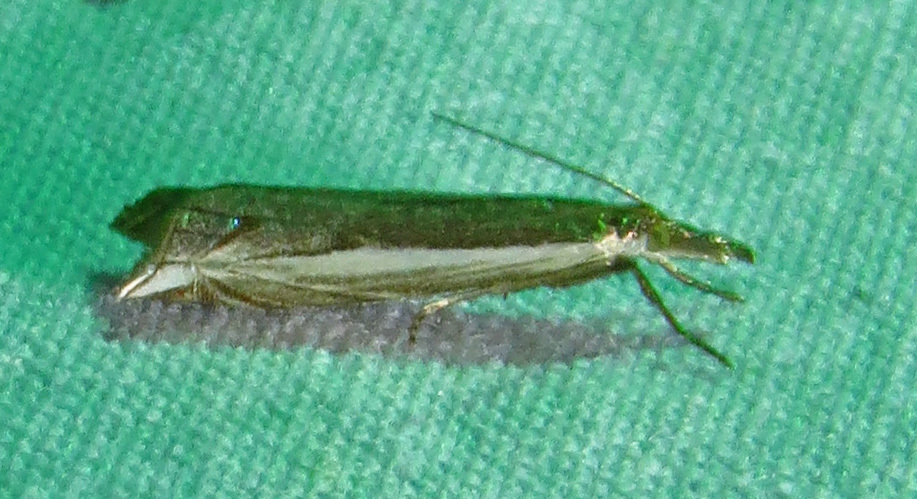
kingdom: Animalia
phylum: Arthropoda
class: Insecta
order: Lepidoptera
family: Crambidae
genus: Raphiptera
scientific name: Raphiptera argillaceellus
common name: Diminutive grass-veneer
